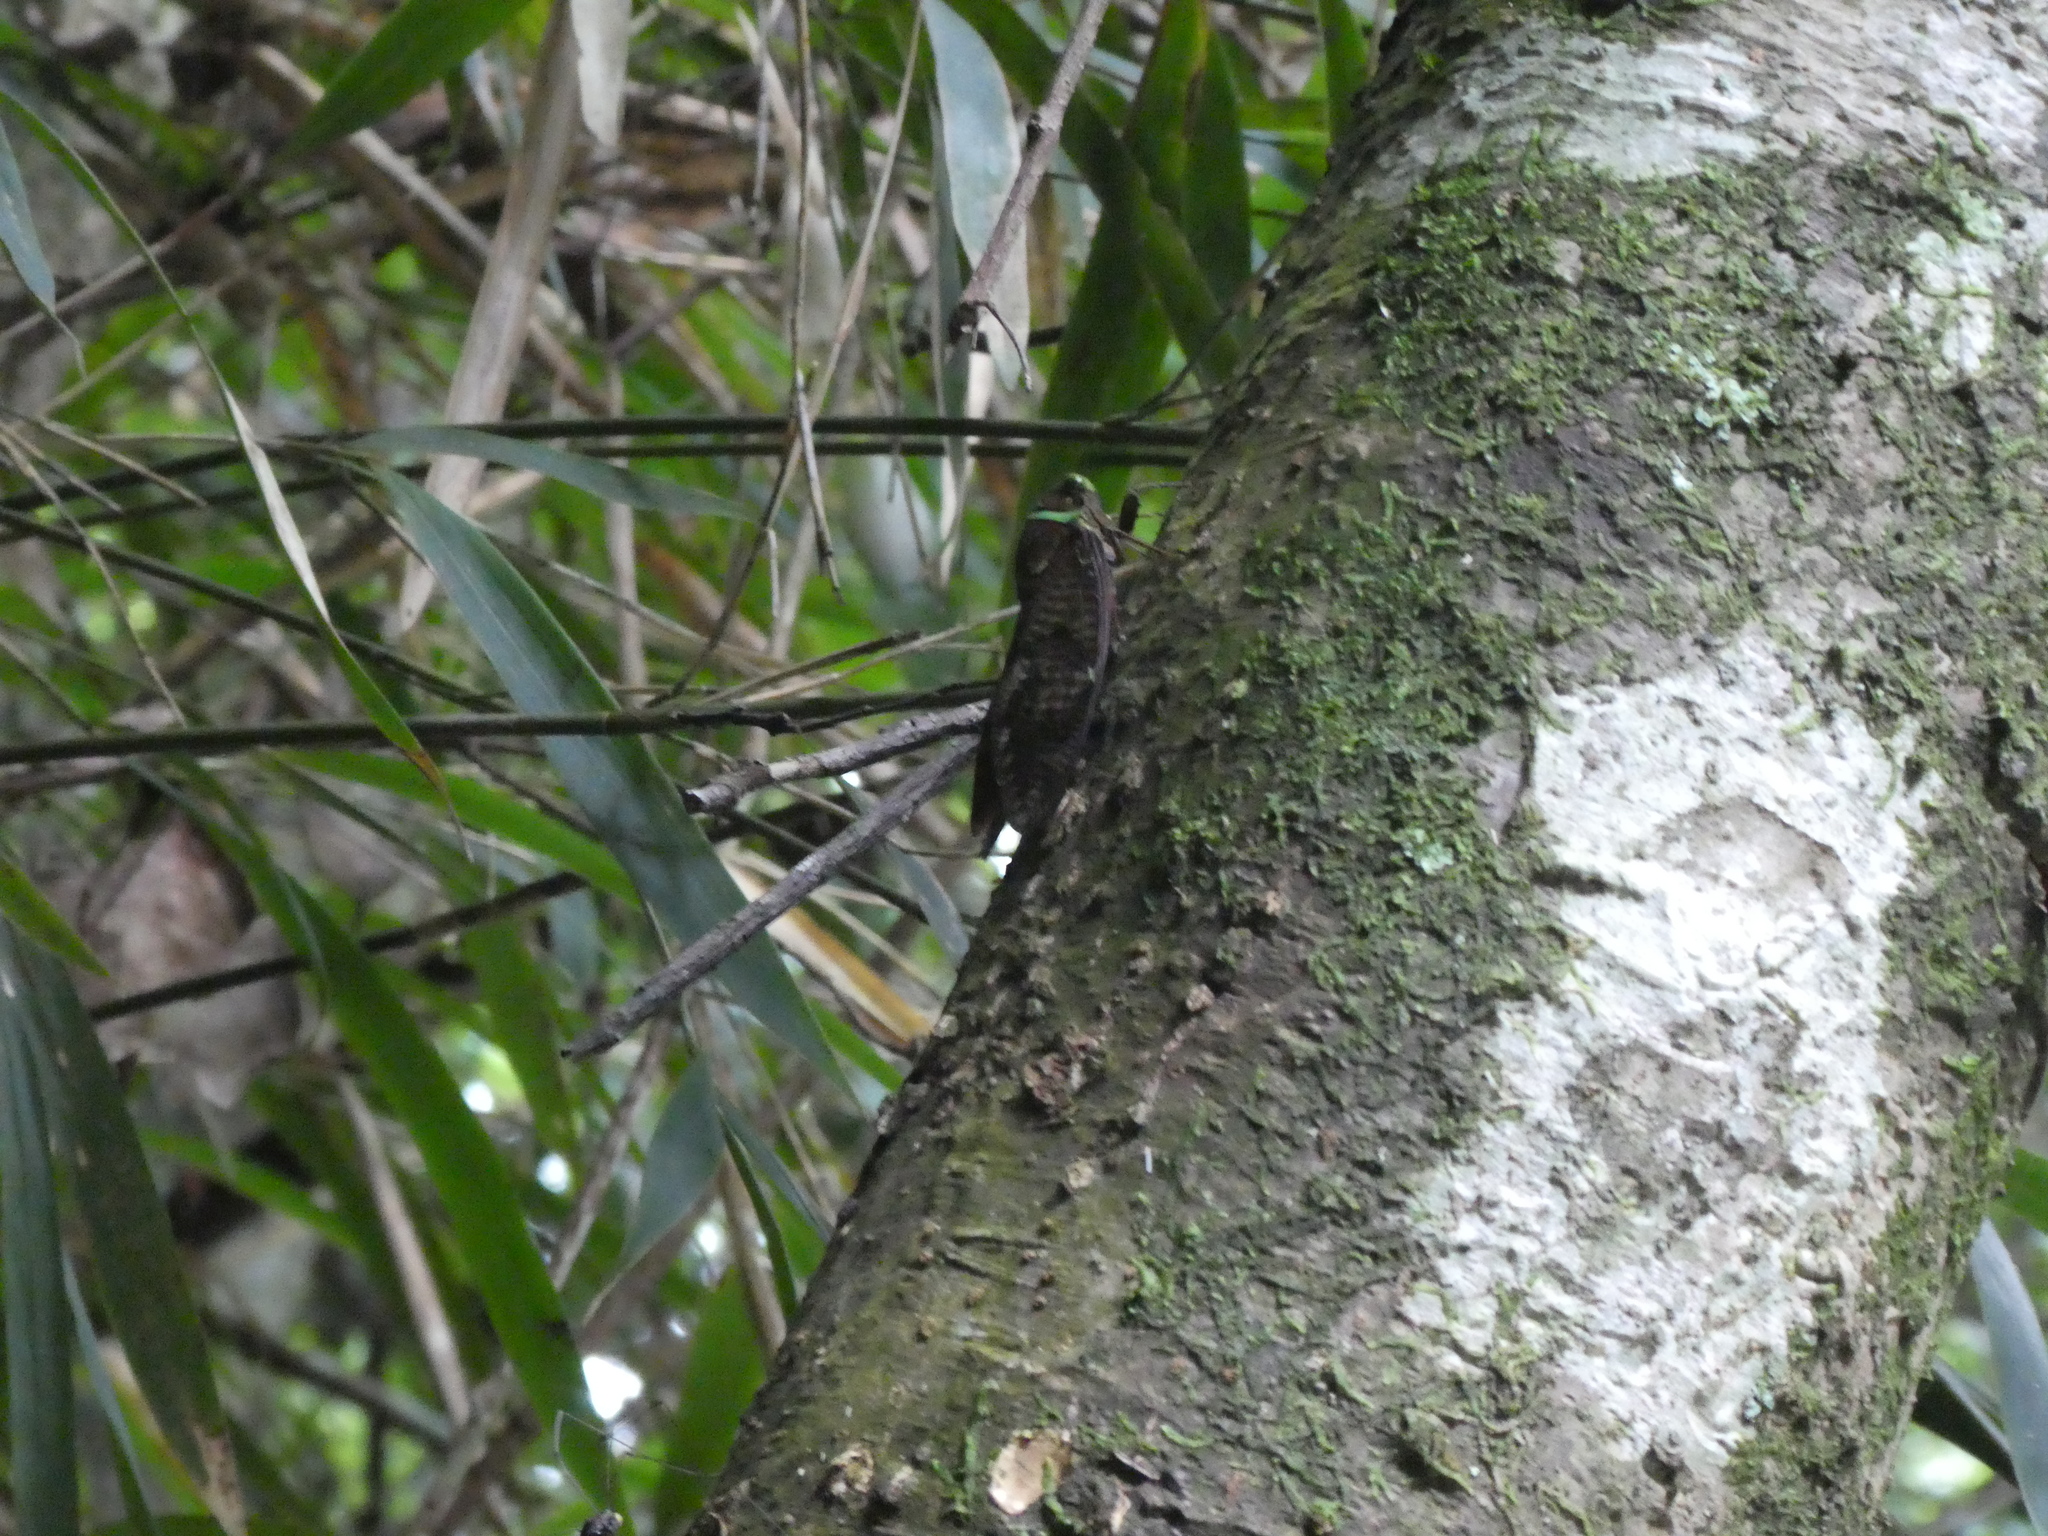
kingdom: Animalia
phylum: Arthropoda
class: Insecta
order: Hemiptera
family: Cicadidae
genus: Graptopsaltria
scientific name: Graptopsaltria tienta
